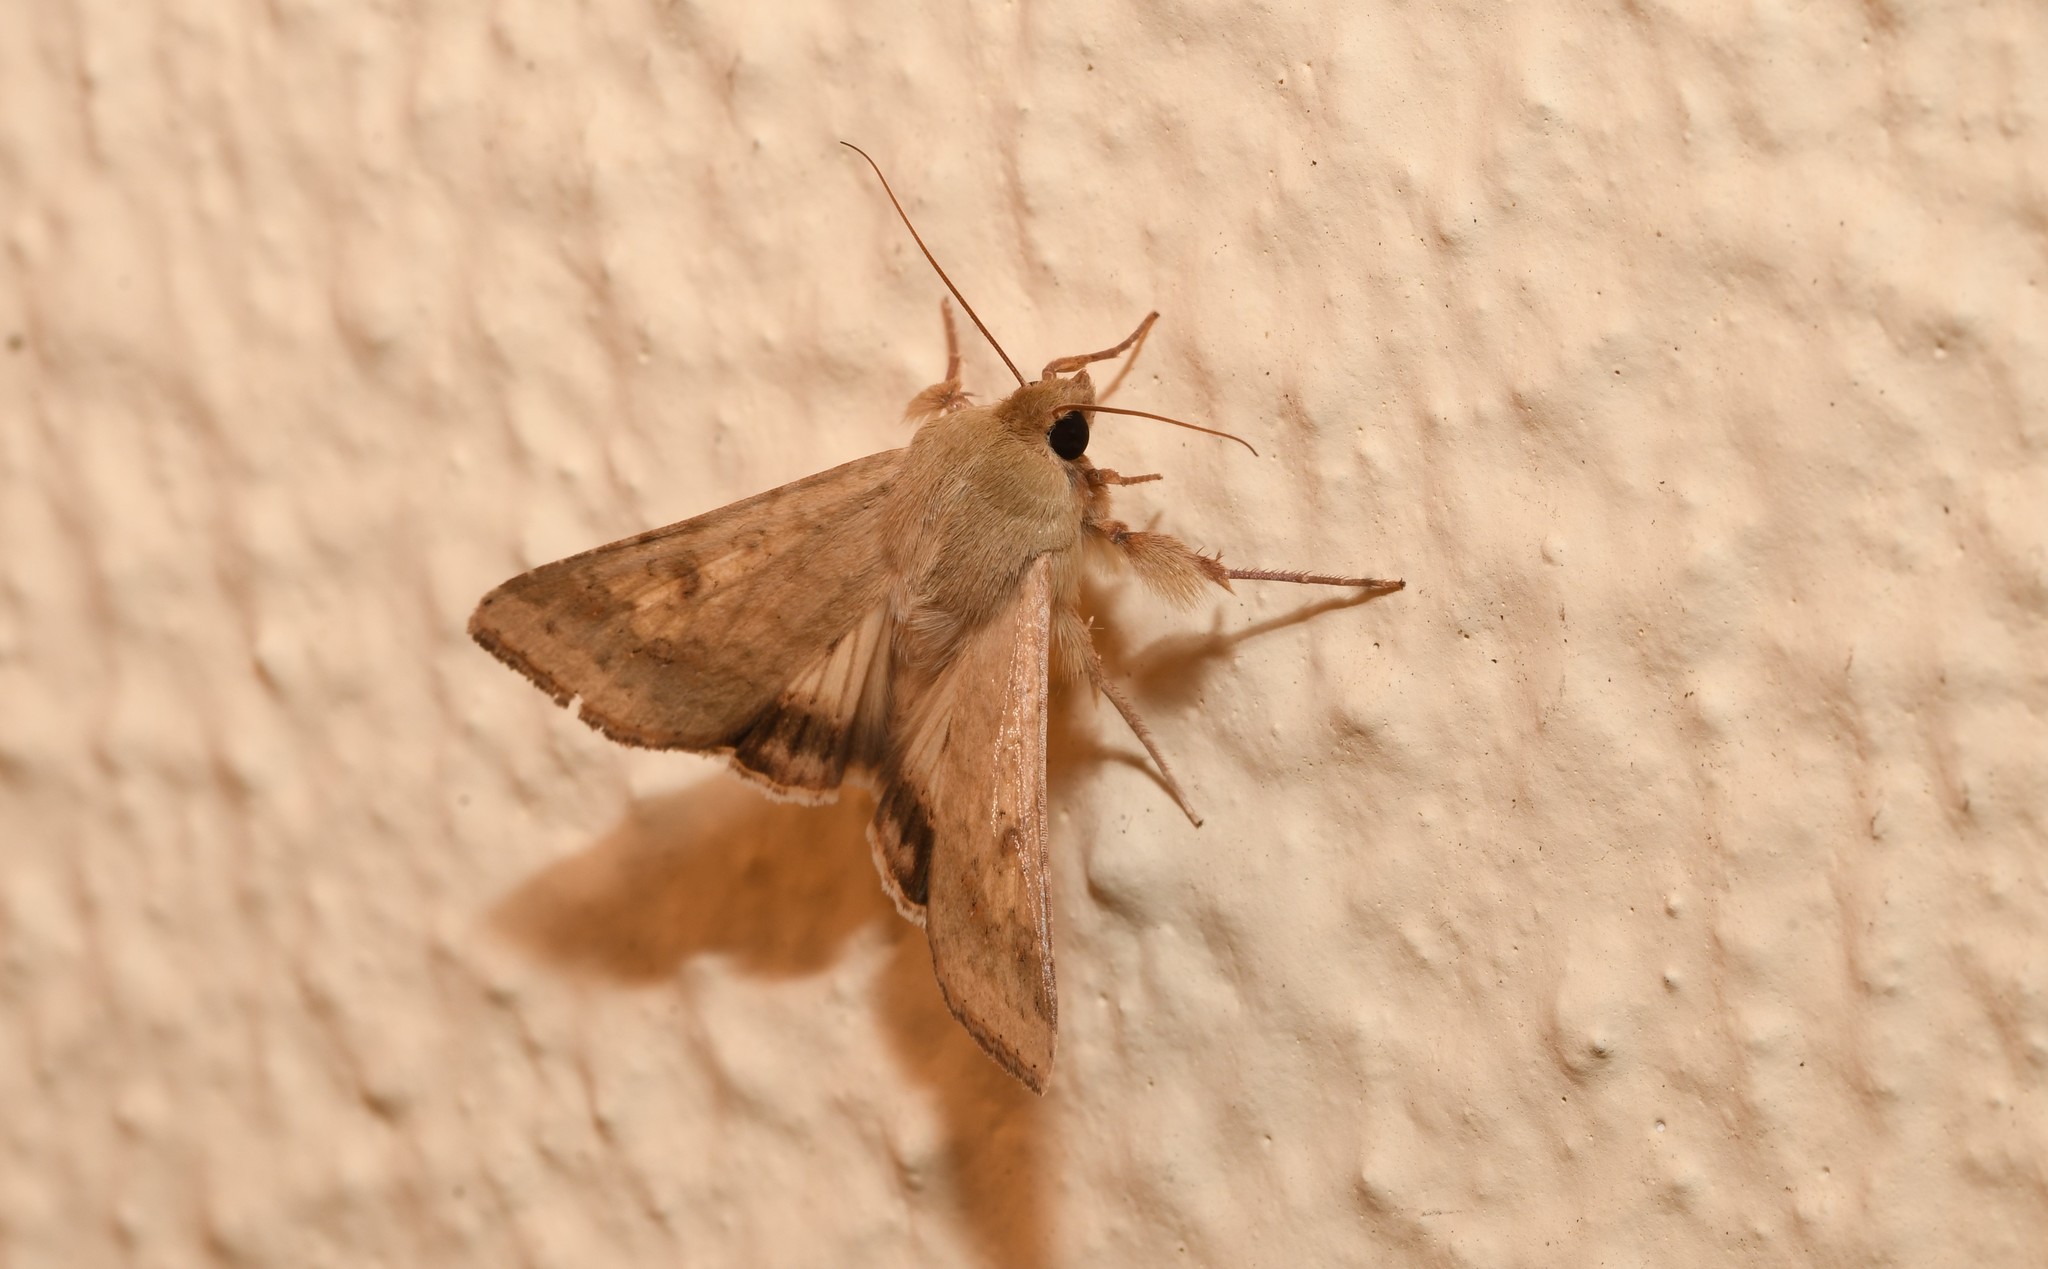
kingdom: Animalia
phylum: Arthropoda
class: Insecta
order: Lepidoptera
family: Noctuidae
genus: Helicoverpa
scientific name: Helicoverpa armigera
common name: Cotton bollworm
